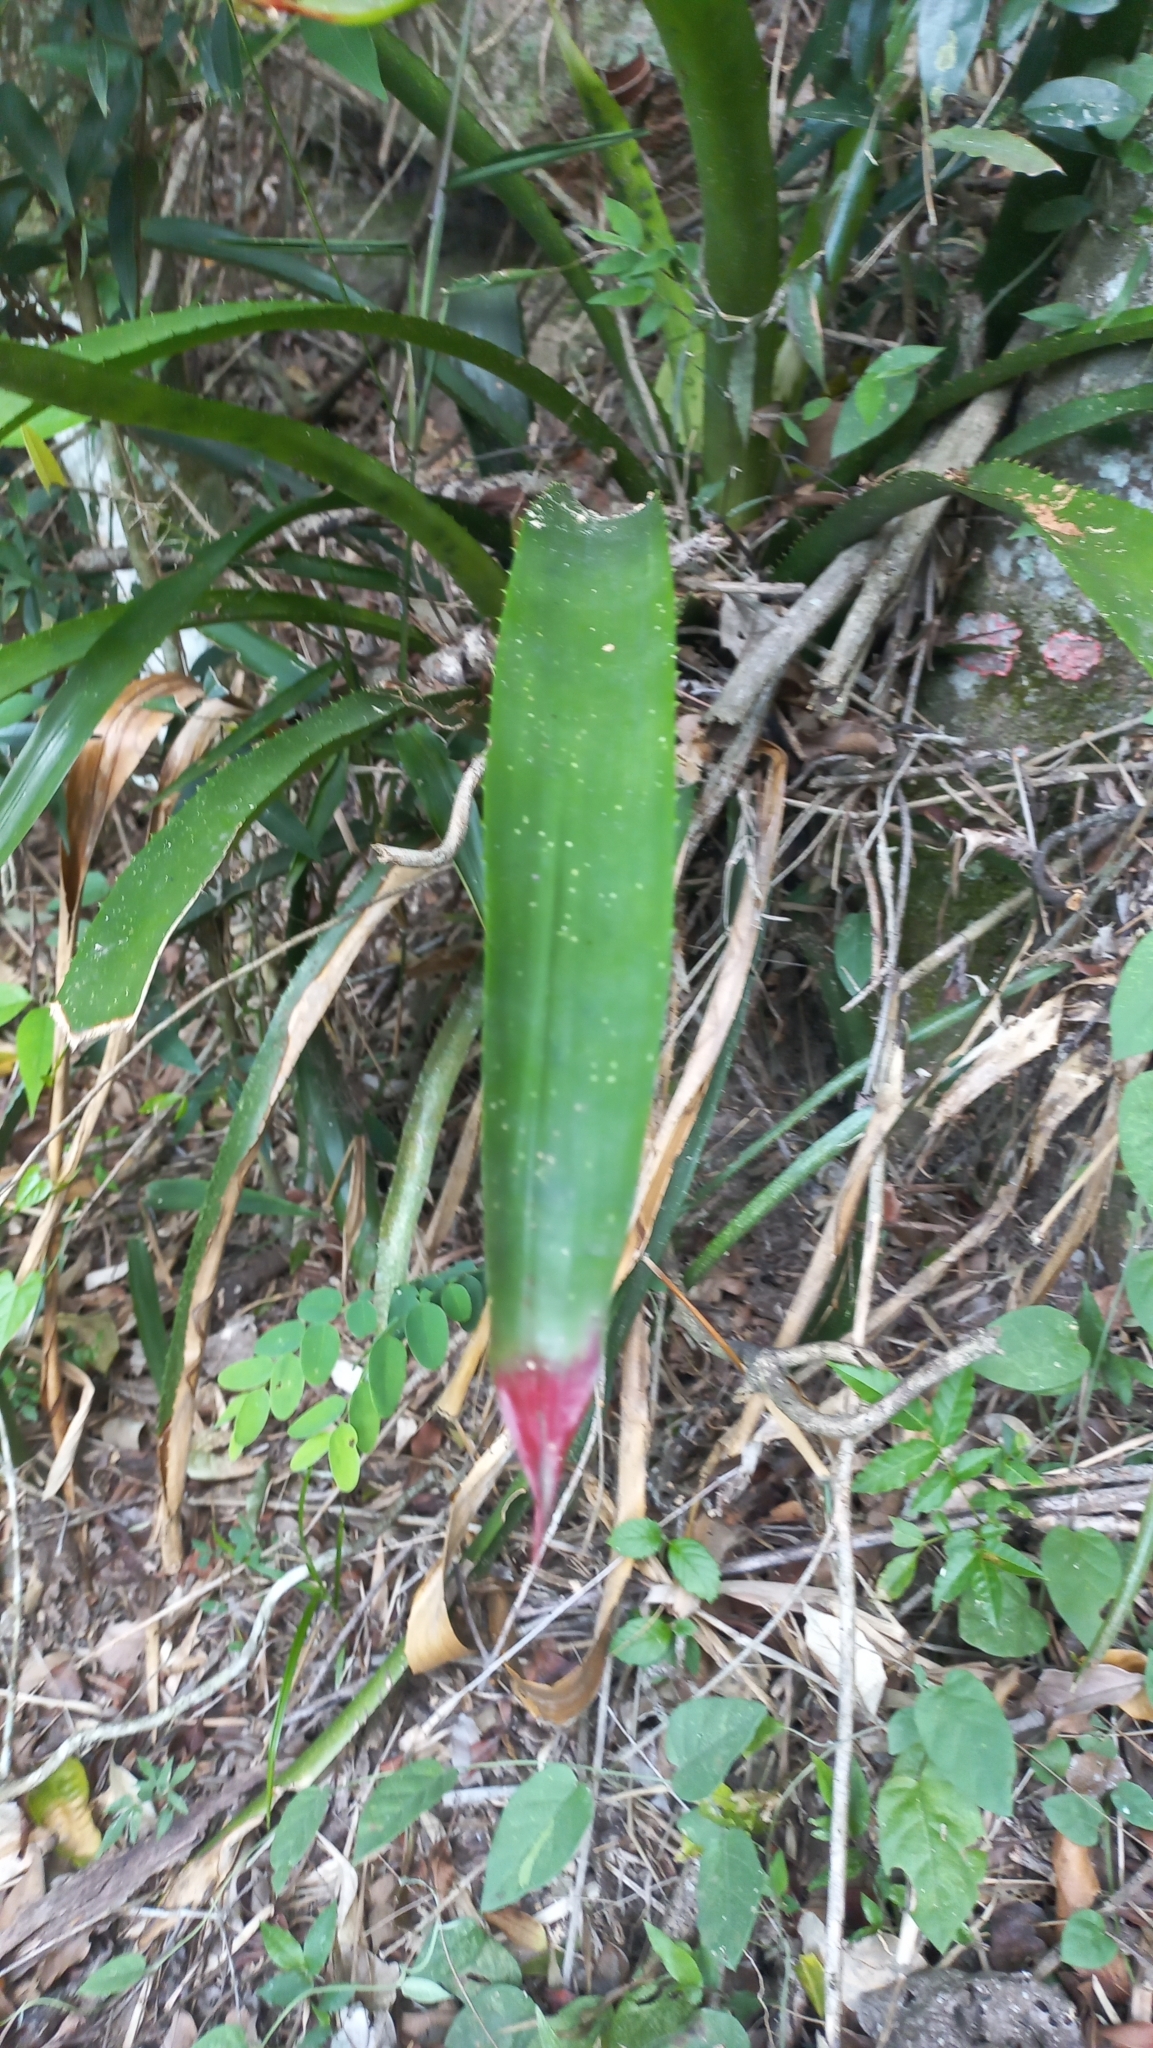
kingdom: Plantae
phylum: Tracheophyta
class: Liliopsida
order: Poales
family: Bromeliaceae
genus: Wittrockia
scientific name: Wittrockia superba
